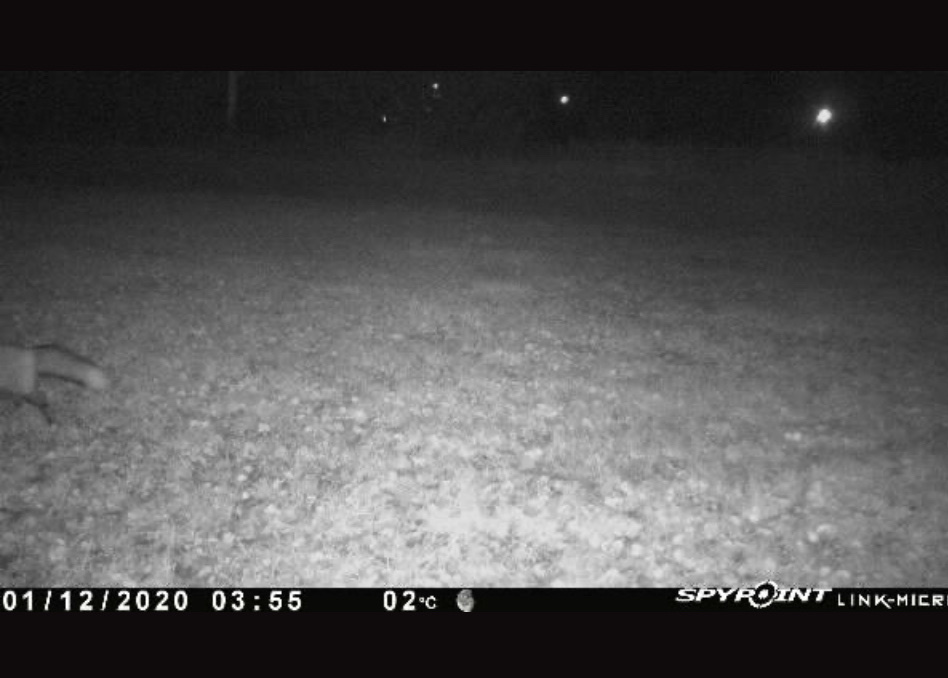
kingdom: Animalia
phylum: Chordata
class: Mammalia
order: Carnivora
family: Canidae
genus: Vulpes
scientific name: Vulpes vulpes
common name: Red fox
